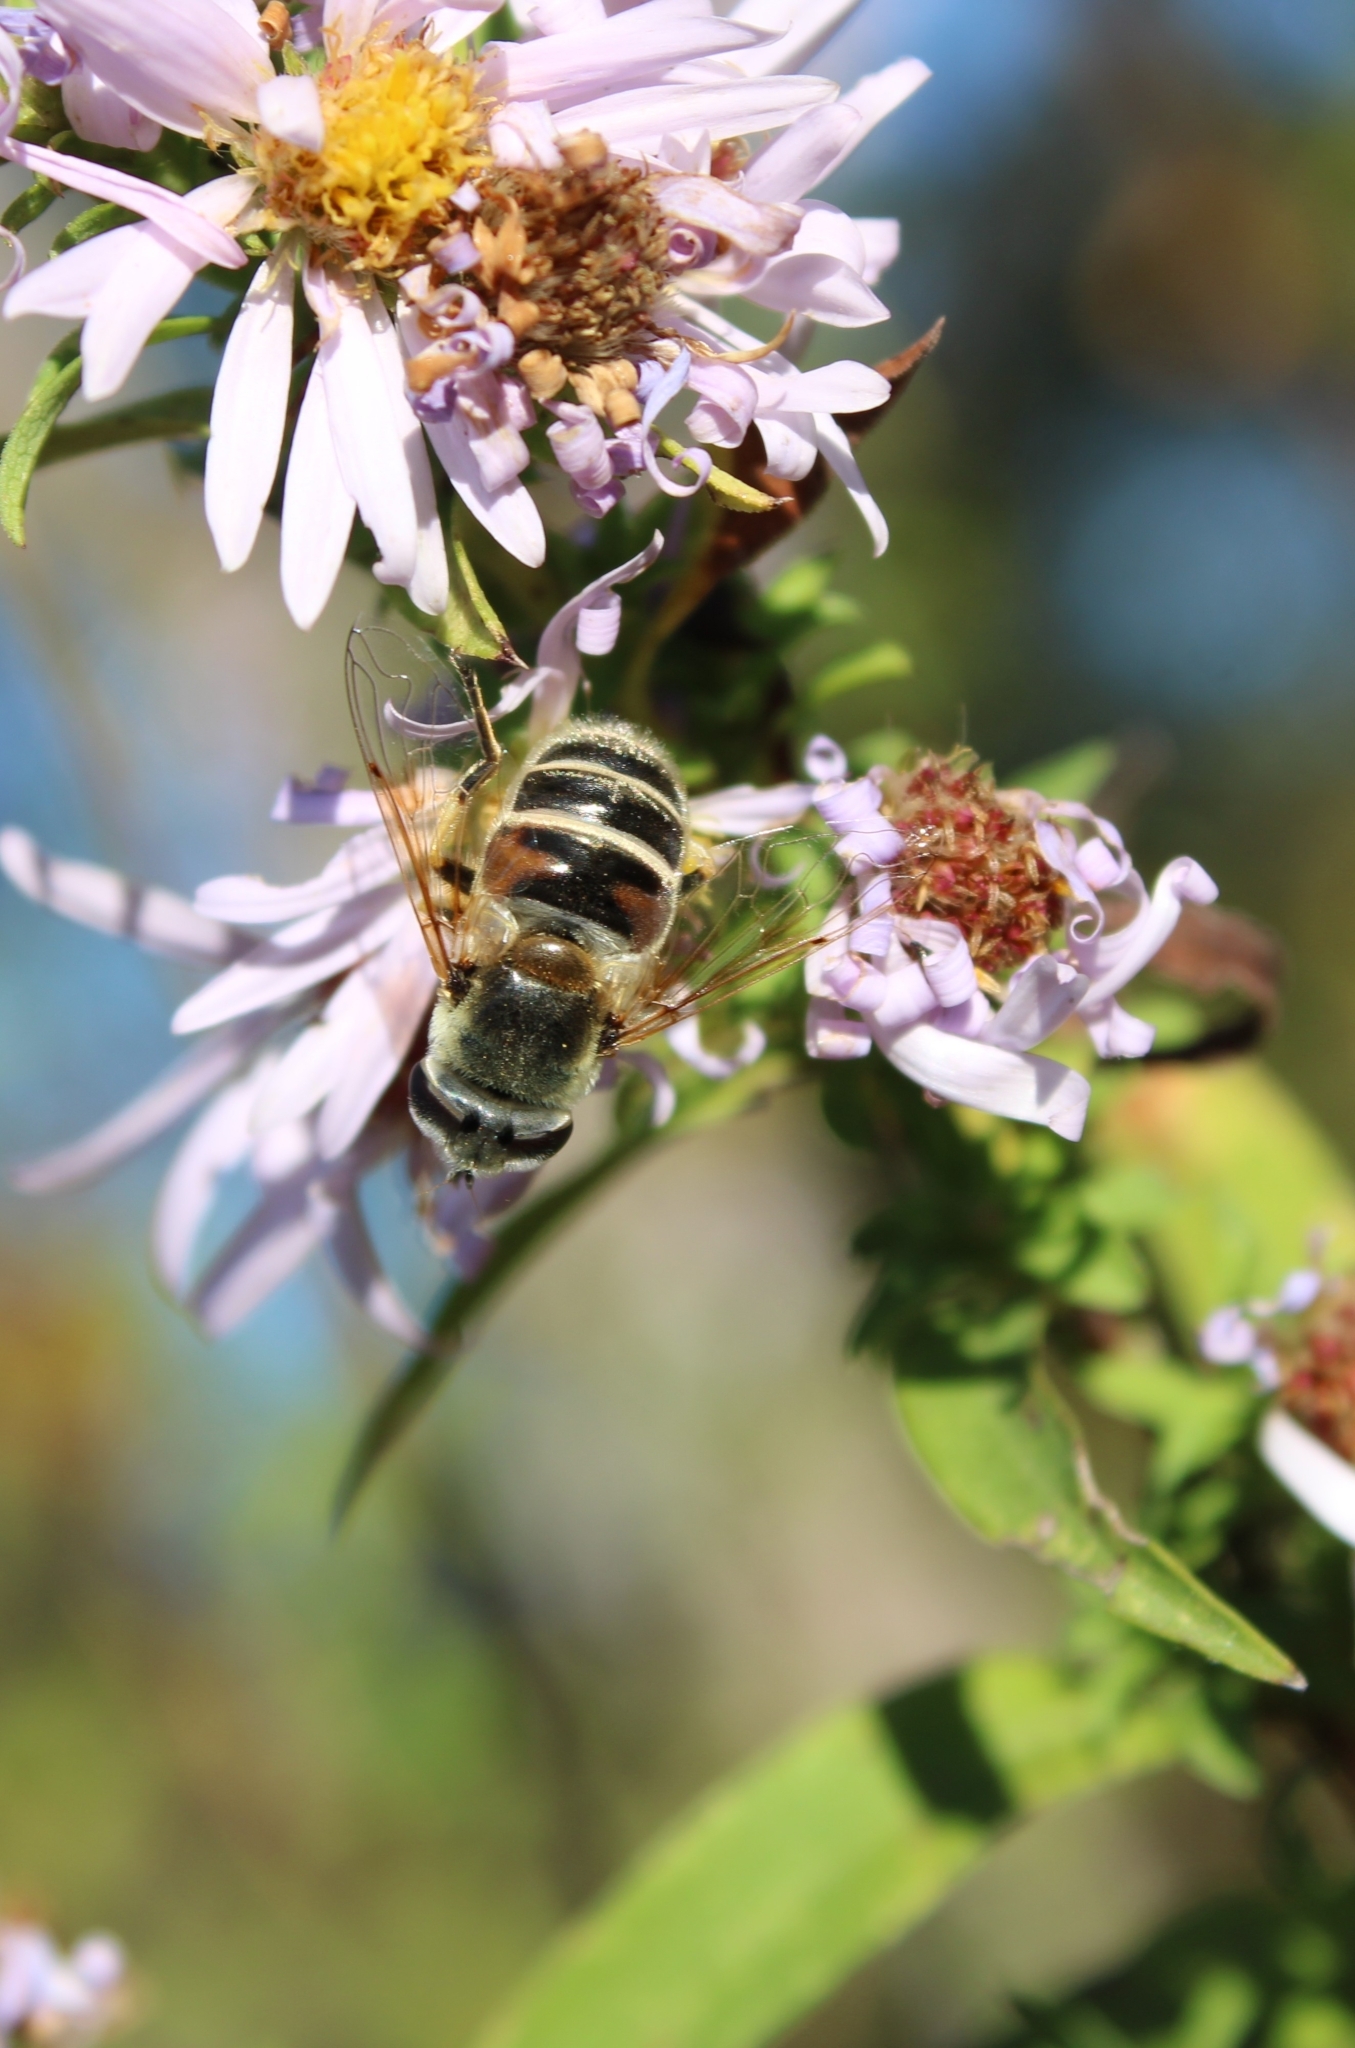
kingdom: Animalia
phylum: Arthropoda
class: Insecta
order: Diptera
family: Syrphidae
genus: Eristalis
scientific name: Eristalis stipator
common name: Yellow-shouldered drone fly
